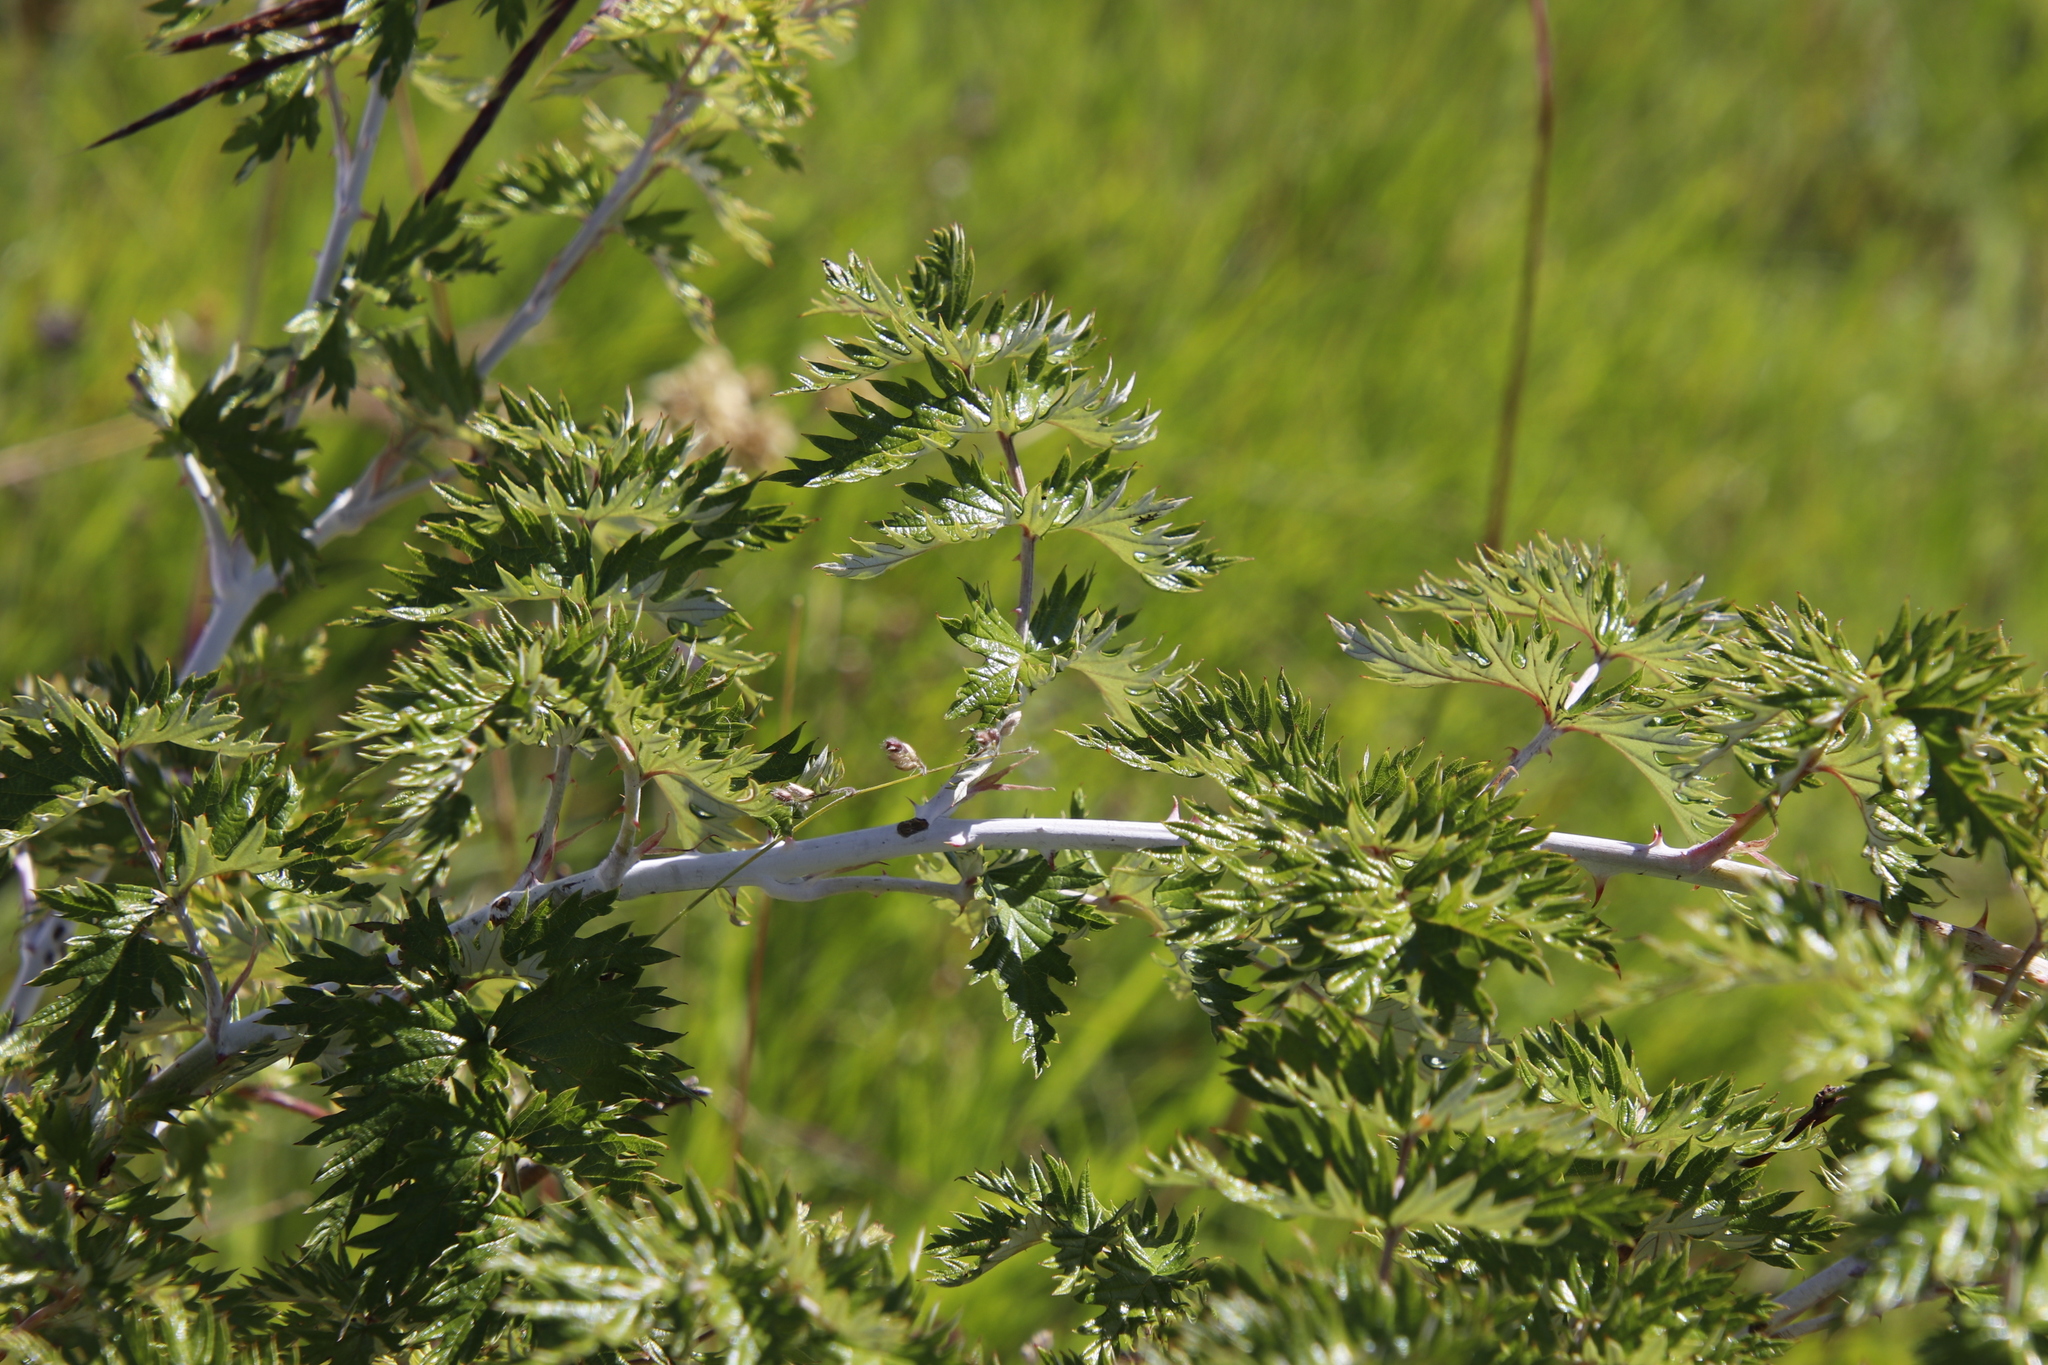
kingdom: Plantae
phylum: Tracheophyta
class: Magnoliopsida
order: Rosales
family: Rosaceae
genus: Rubus
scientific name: Rubus ludwigii
